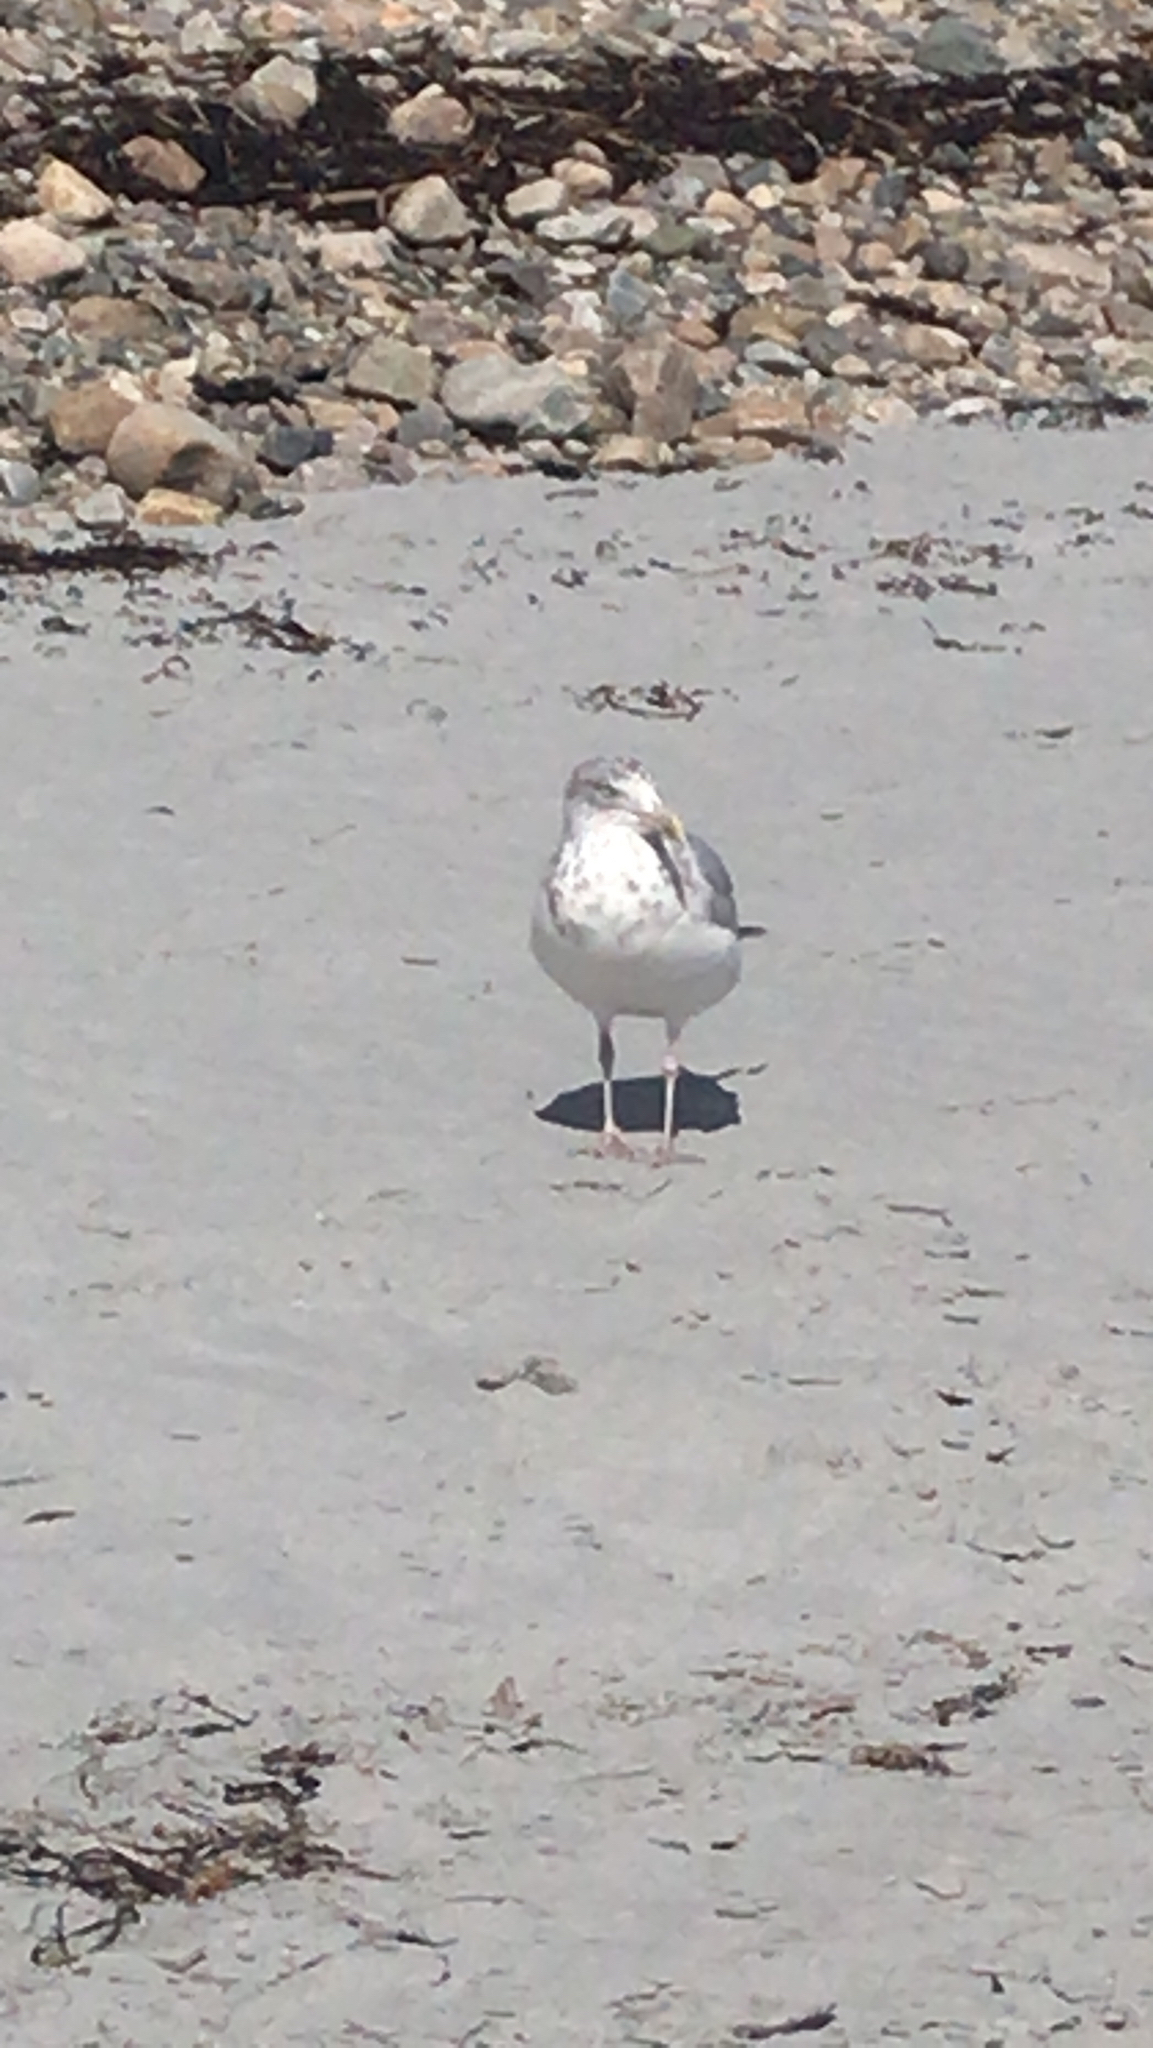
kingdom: Animalia
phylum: Chordata
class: Aves
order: Charadriiformes
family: Laridae
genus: Larus
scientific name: Larus argentatus
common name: Herring gull
